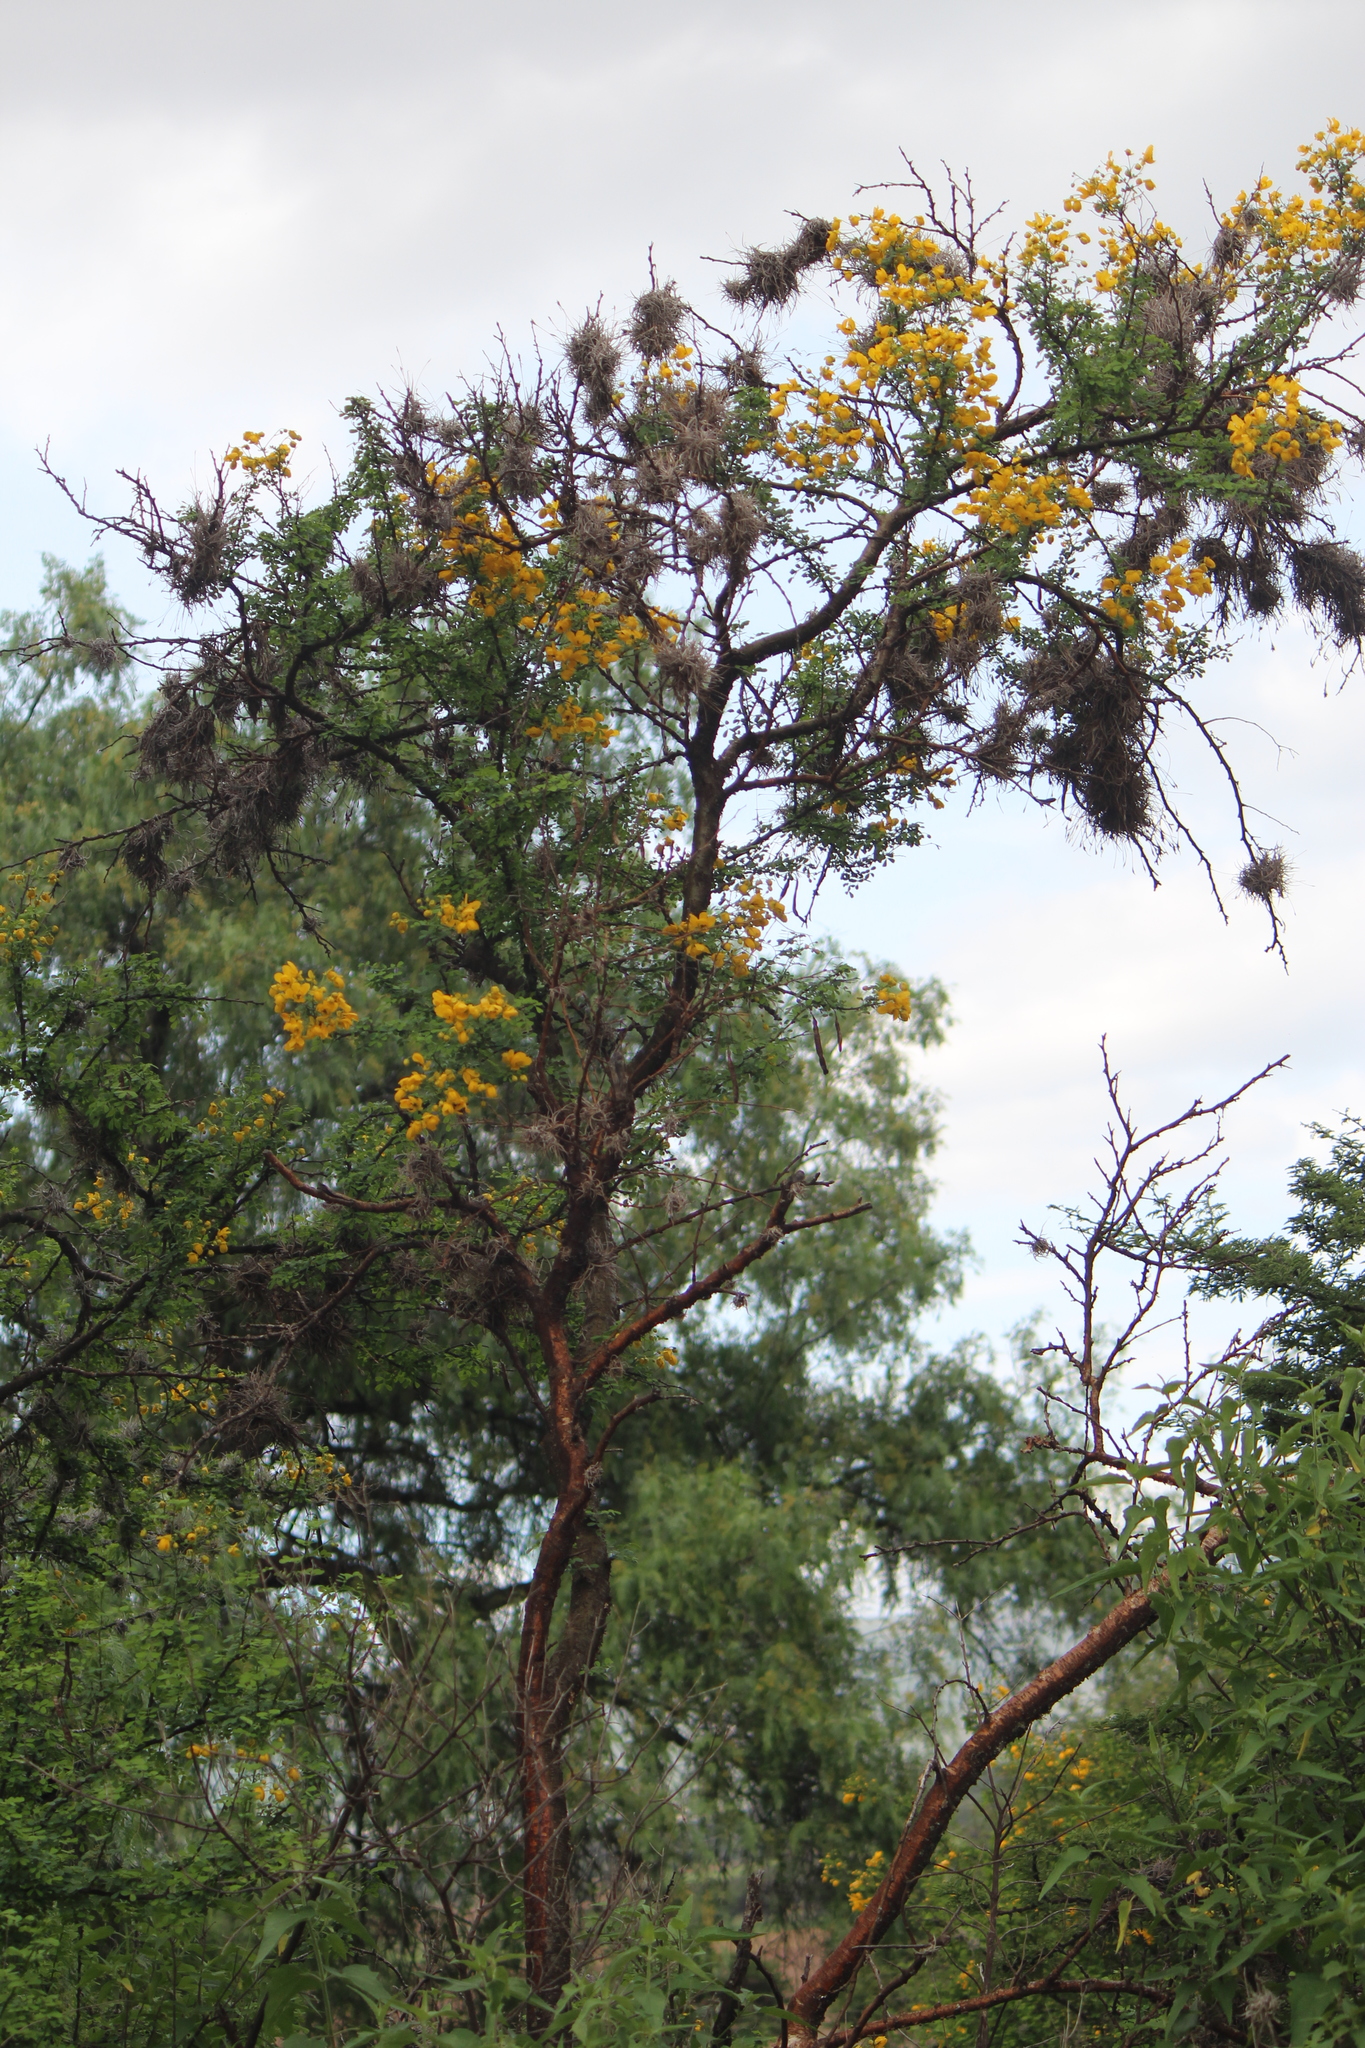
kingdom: Plantae
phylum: Tracheophyta
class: Magnoliopsida
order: Fabales
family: Fabaceae
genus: Senna
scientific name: Senna wislizeni
